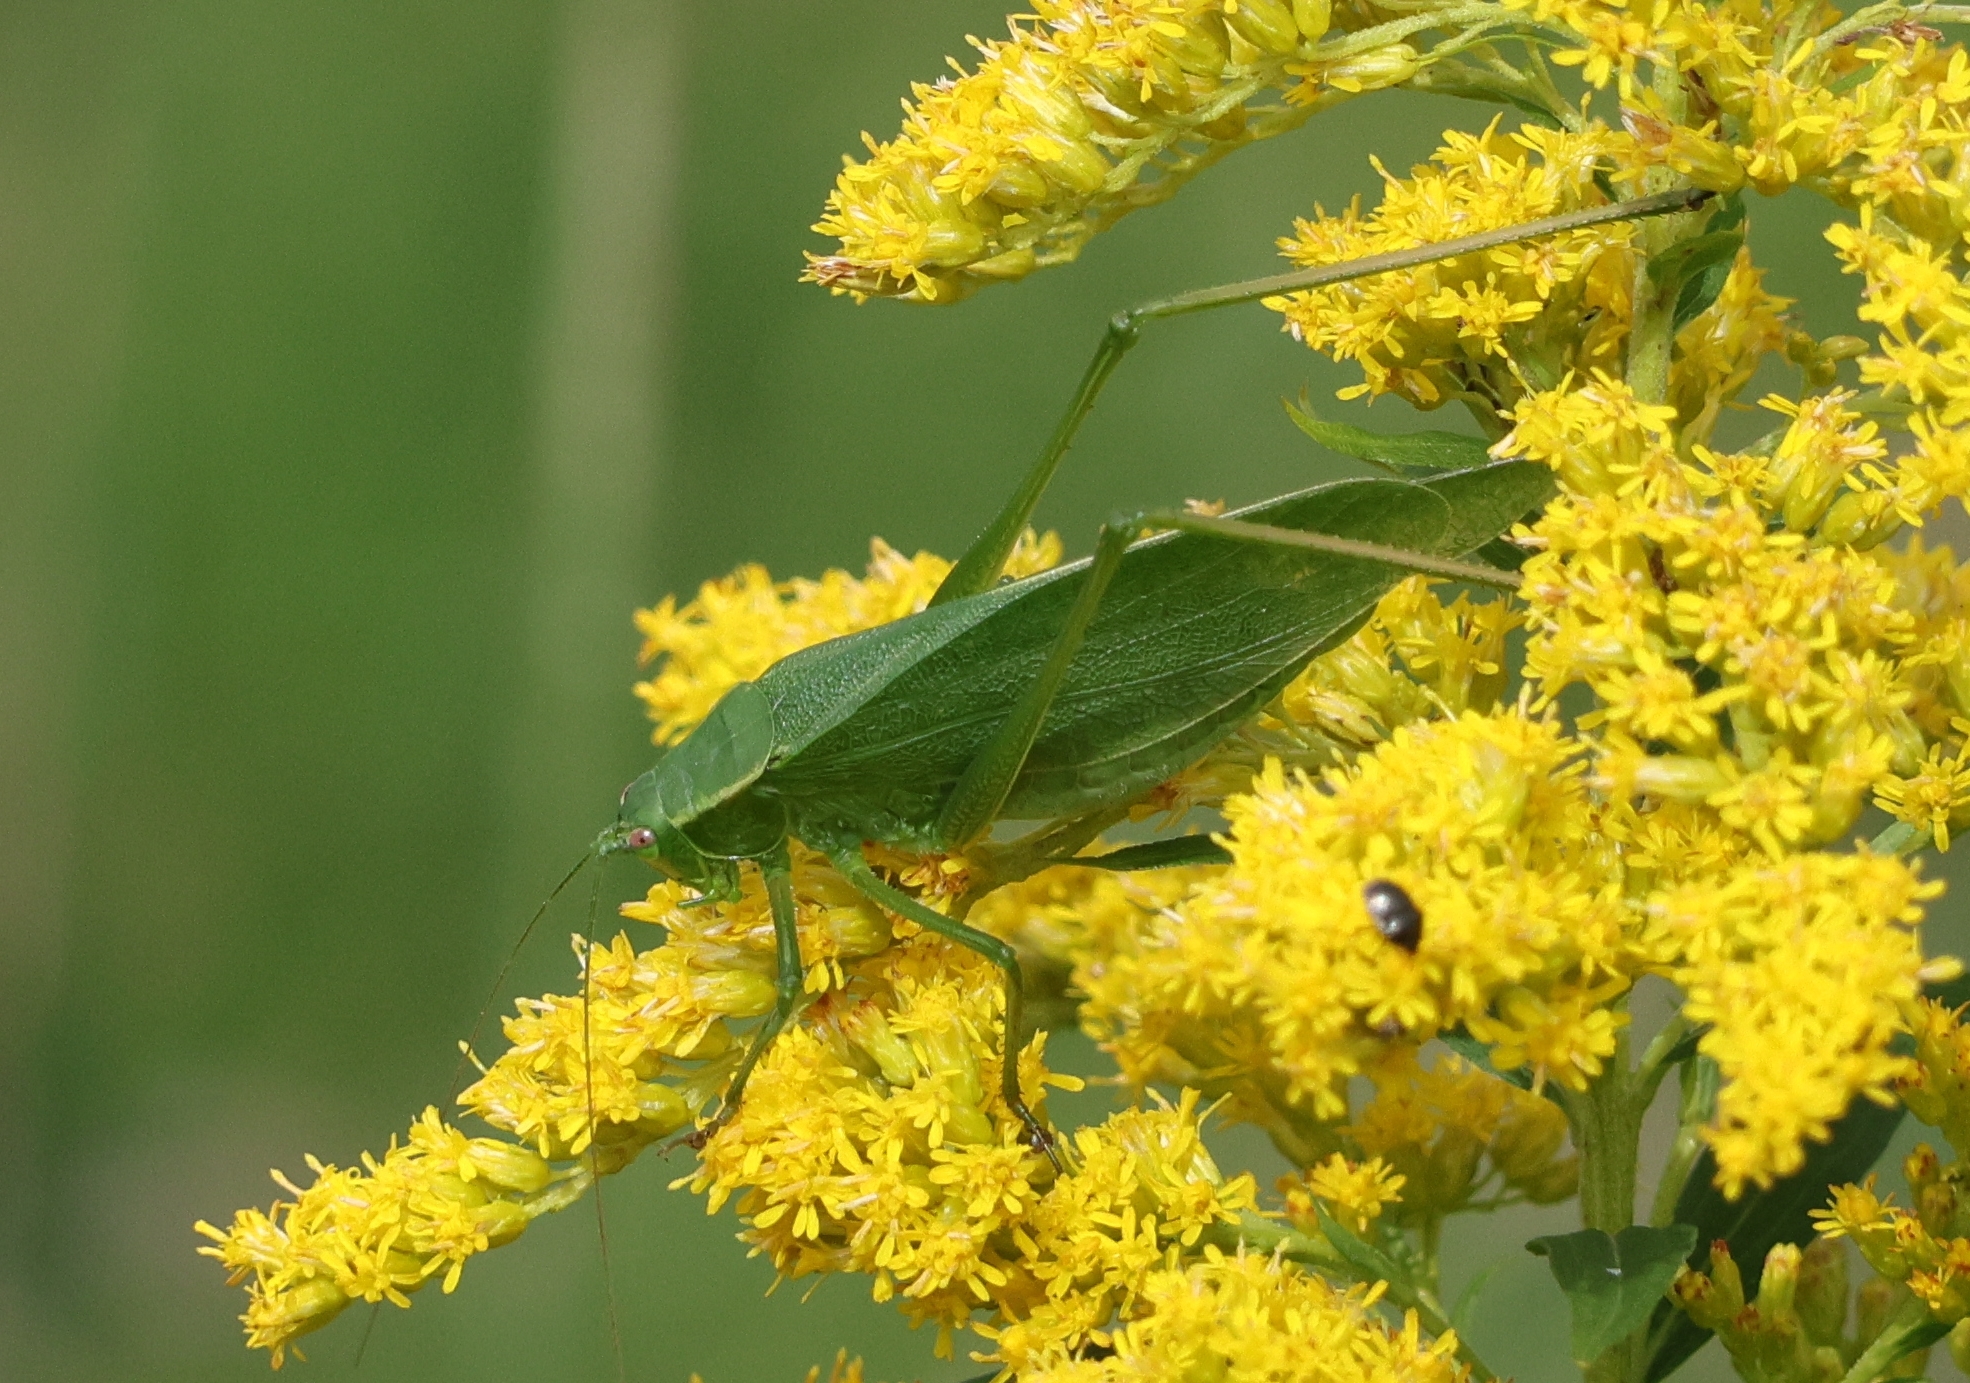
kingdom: Animalia
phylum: Arthropoda
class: Insecta
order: Orthoptera
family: Tettigoniidae
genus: Scudderia
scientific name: Scudderia pistillata
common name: Broad-winged bush-katydid
